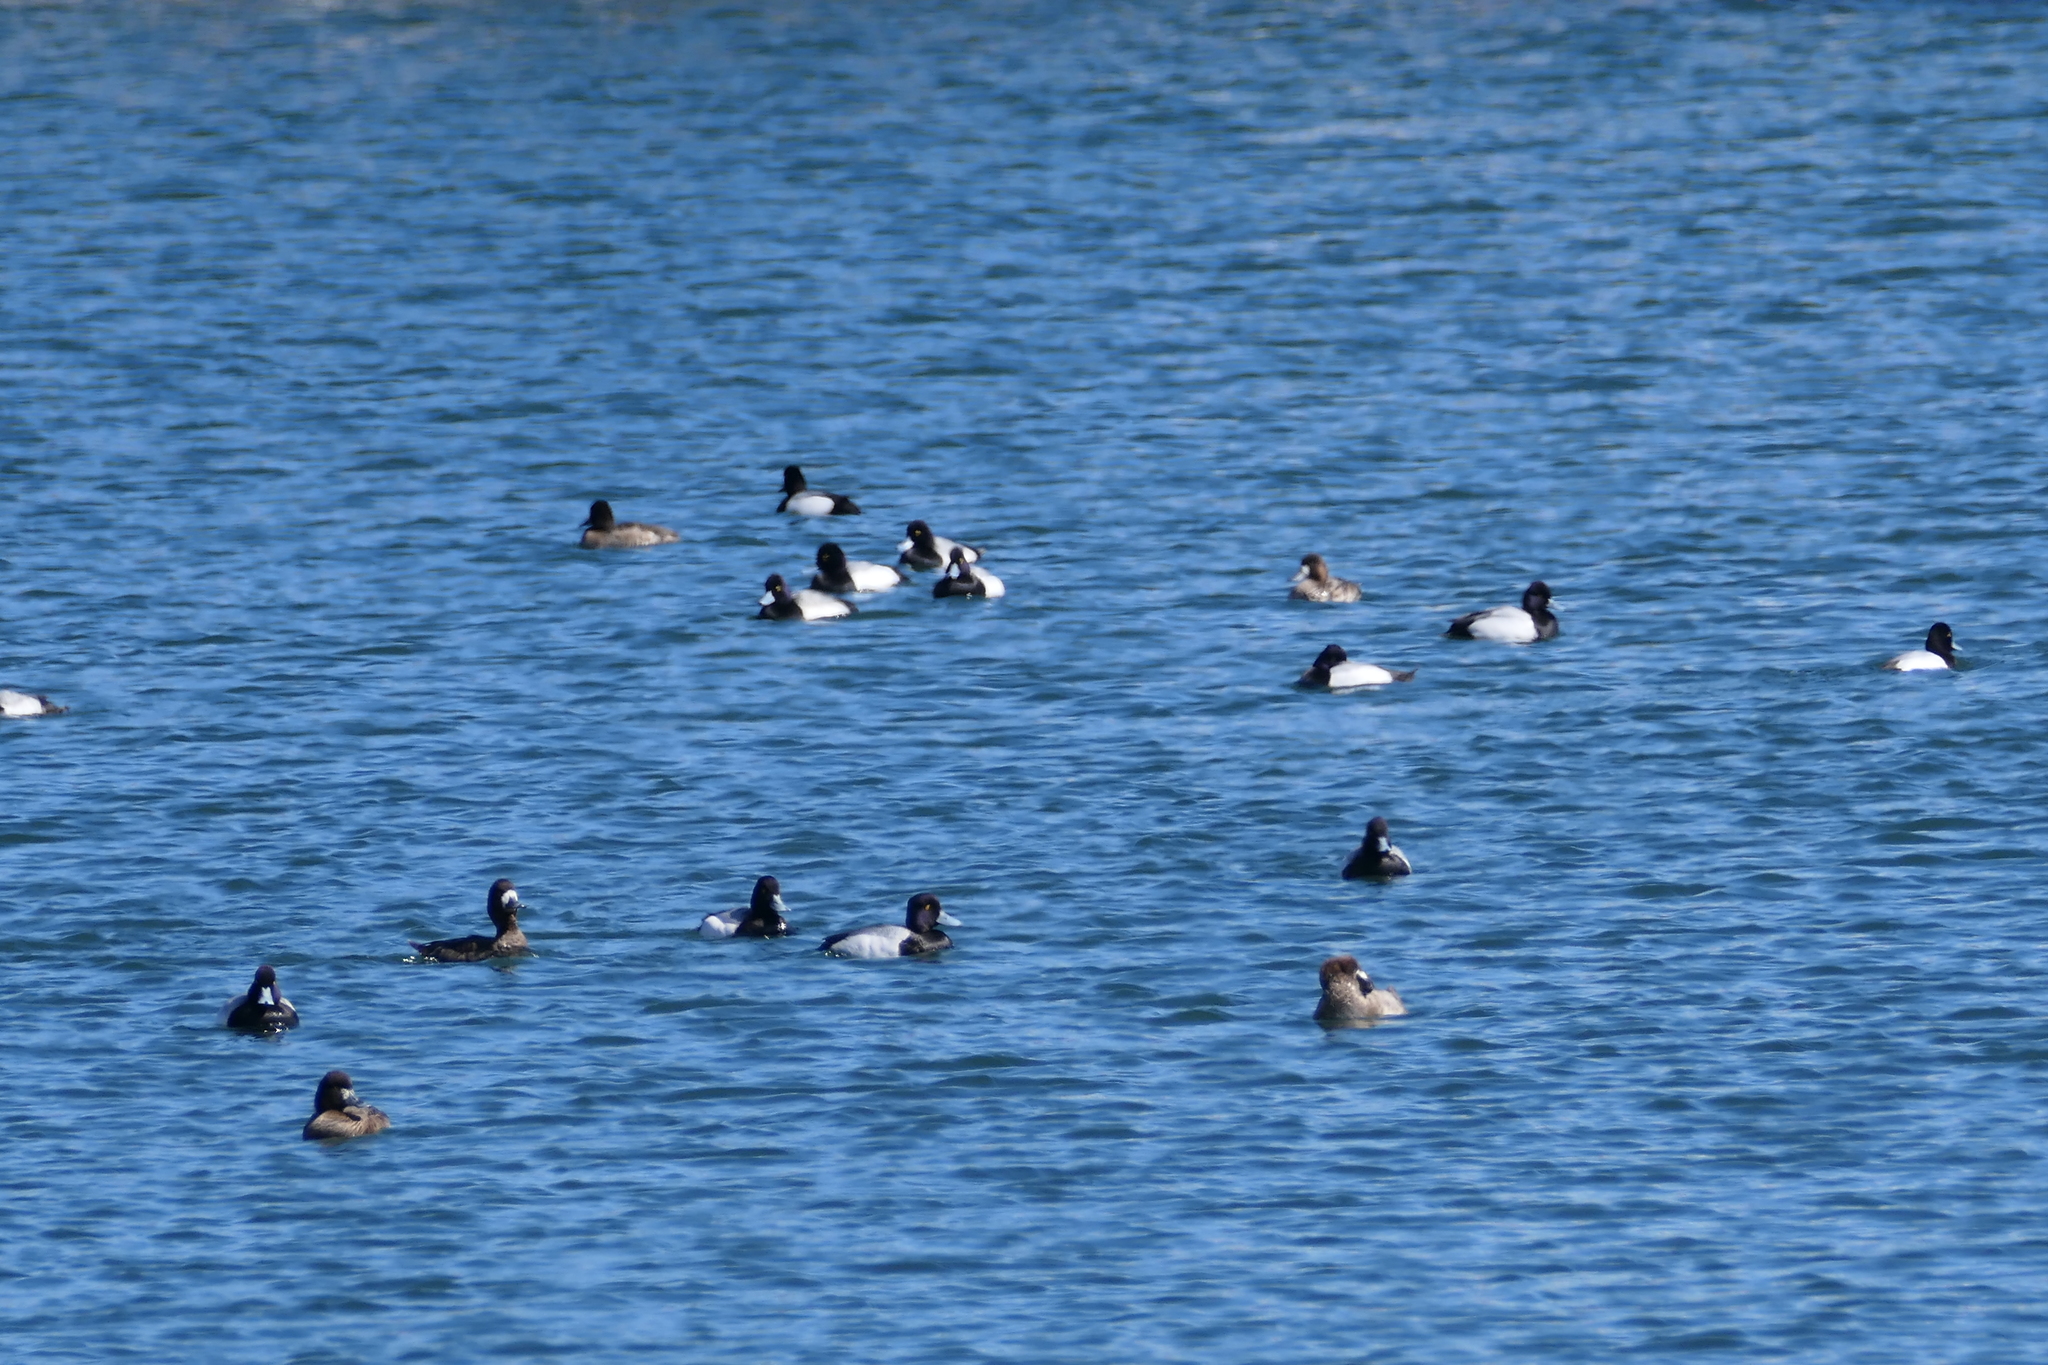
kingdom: Animalia
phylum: Chordata
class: Aves
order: Anseriformes
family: Anatidae
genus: Aythya
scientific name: Aythya affinis
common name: Lesser scaup
